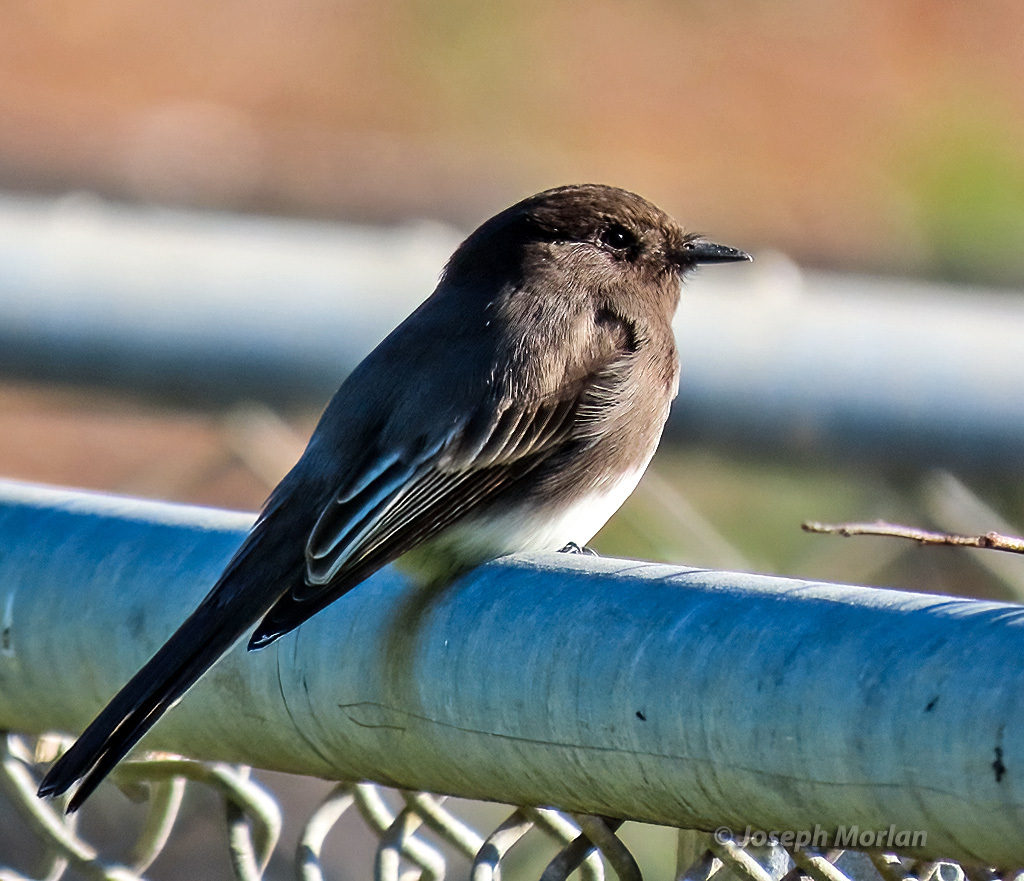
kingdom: Animalia
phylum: Chordata
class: Aves
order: Passeriformes
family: Tyrannidae
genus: Sayornis
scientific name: Sayornis nigricans
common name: Black phoebe
